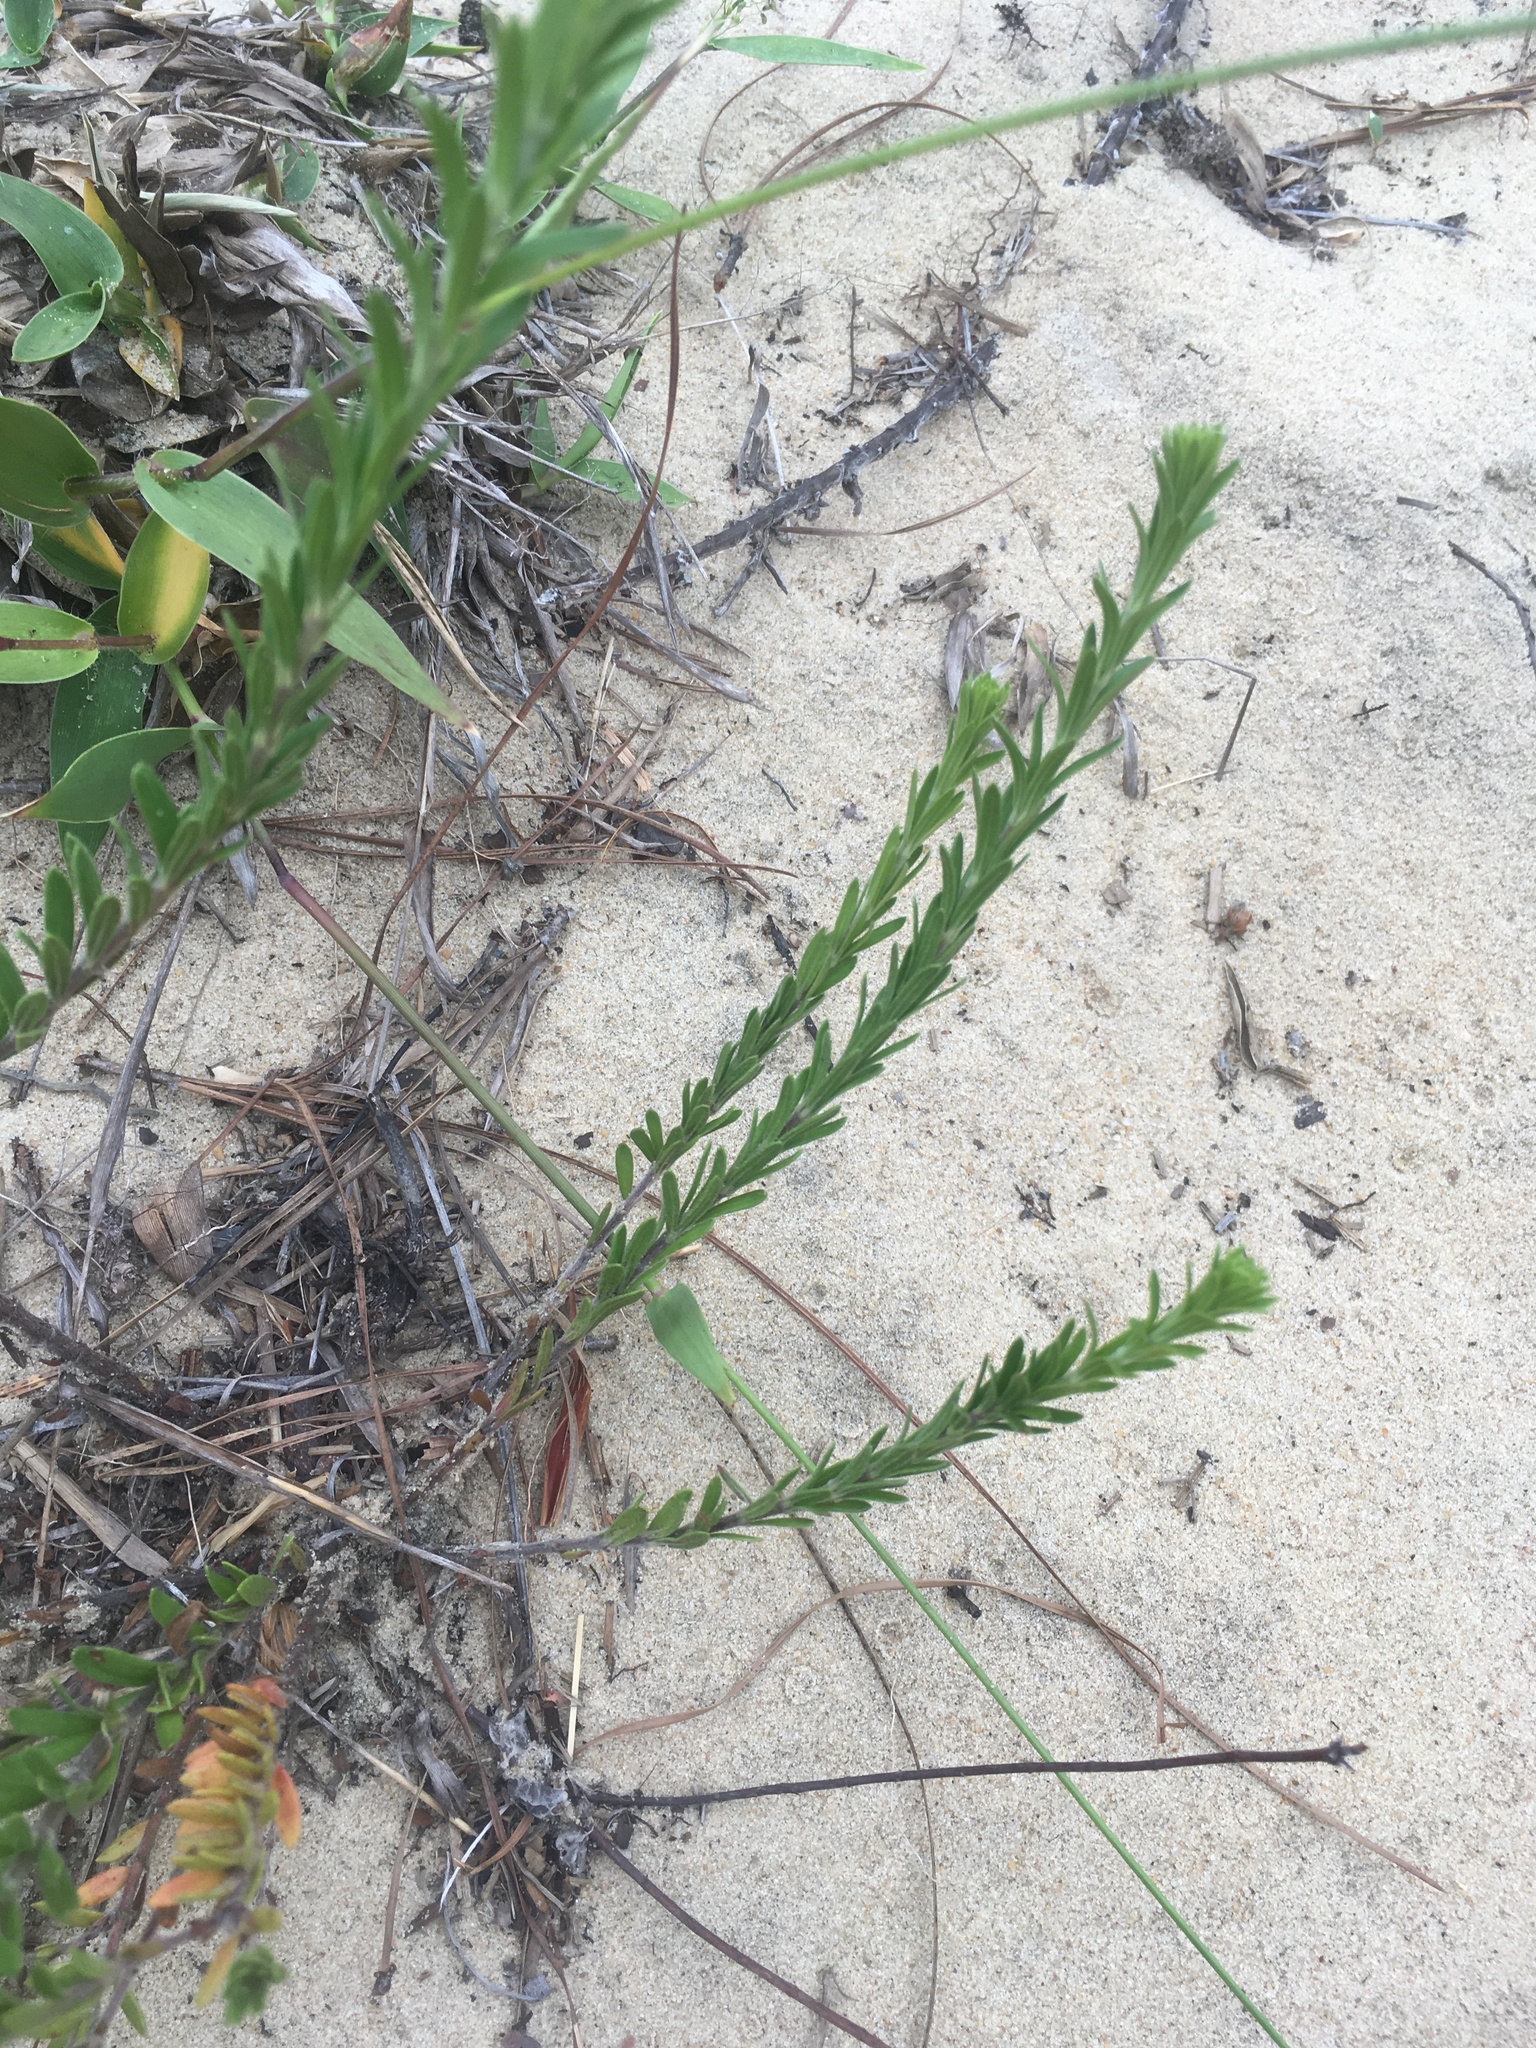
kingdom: Plantae
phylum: Tracheophyta
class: Magnoliopsida
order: Malvales
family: Cistaceae
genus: Lechea
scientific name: Lechea maritima
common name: Beach pinweed
